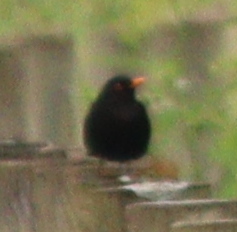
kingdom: Animalia
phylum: Chordata
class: Aves
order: Passeriformes
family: Turdidae
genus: Turdus
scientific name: Turdus merula
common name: Common blackbird
